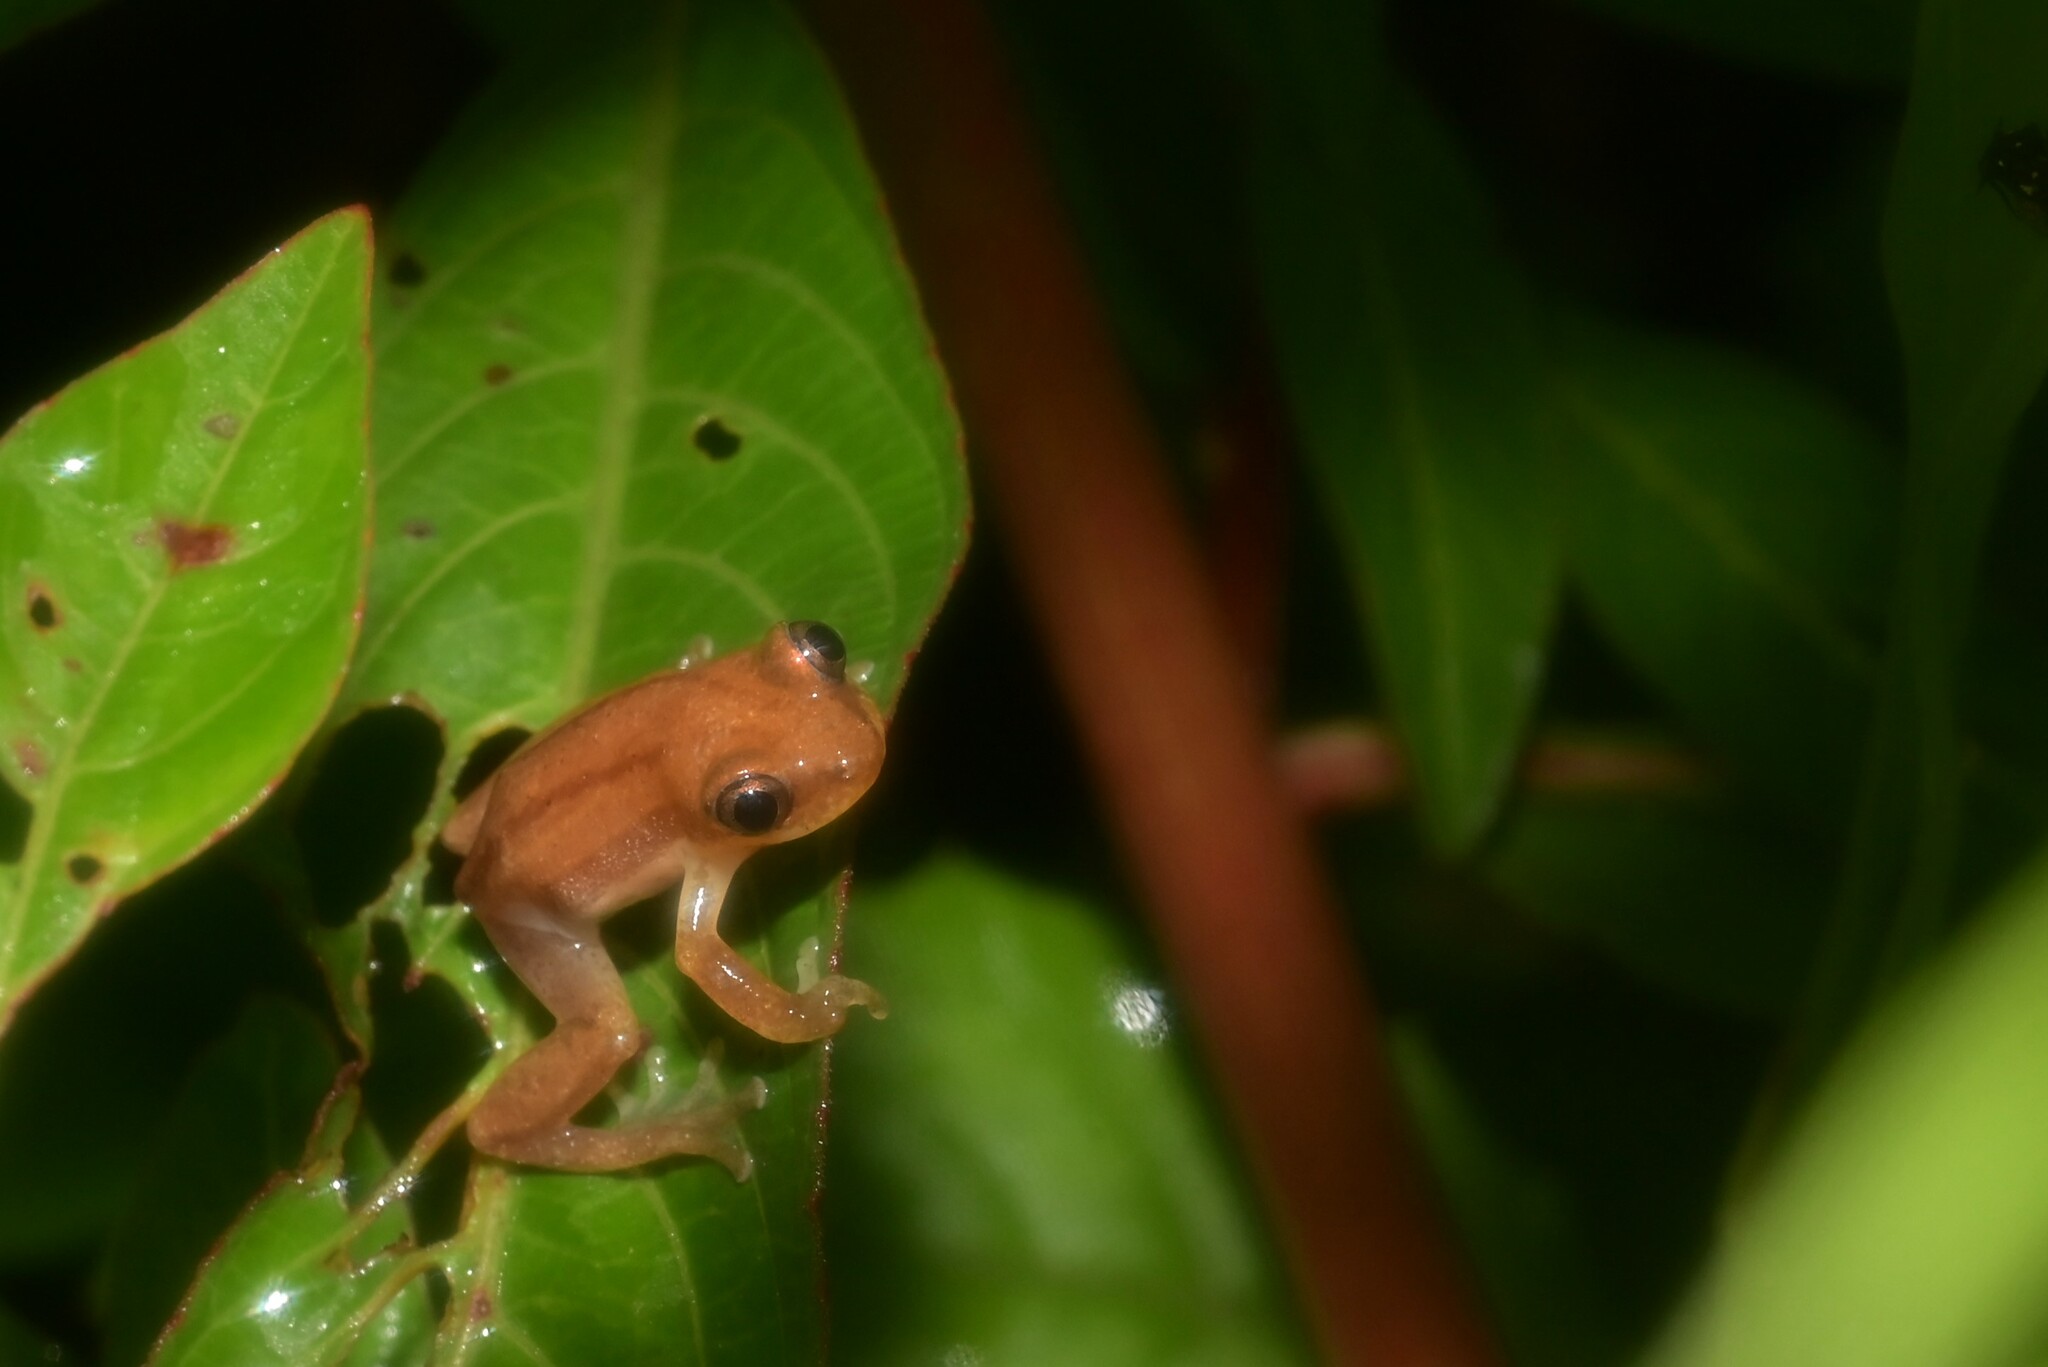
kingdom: Animalia
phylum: Chordata
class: Amphibia
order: Anura
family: Hyperoliidae
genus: Afrixalus
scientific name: Afrixalus brachycnemis
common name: Lesser banana frog
